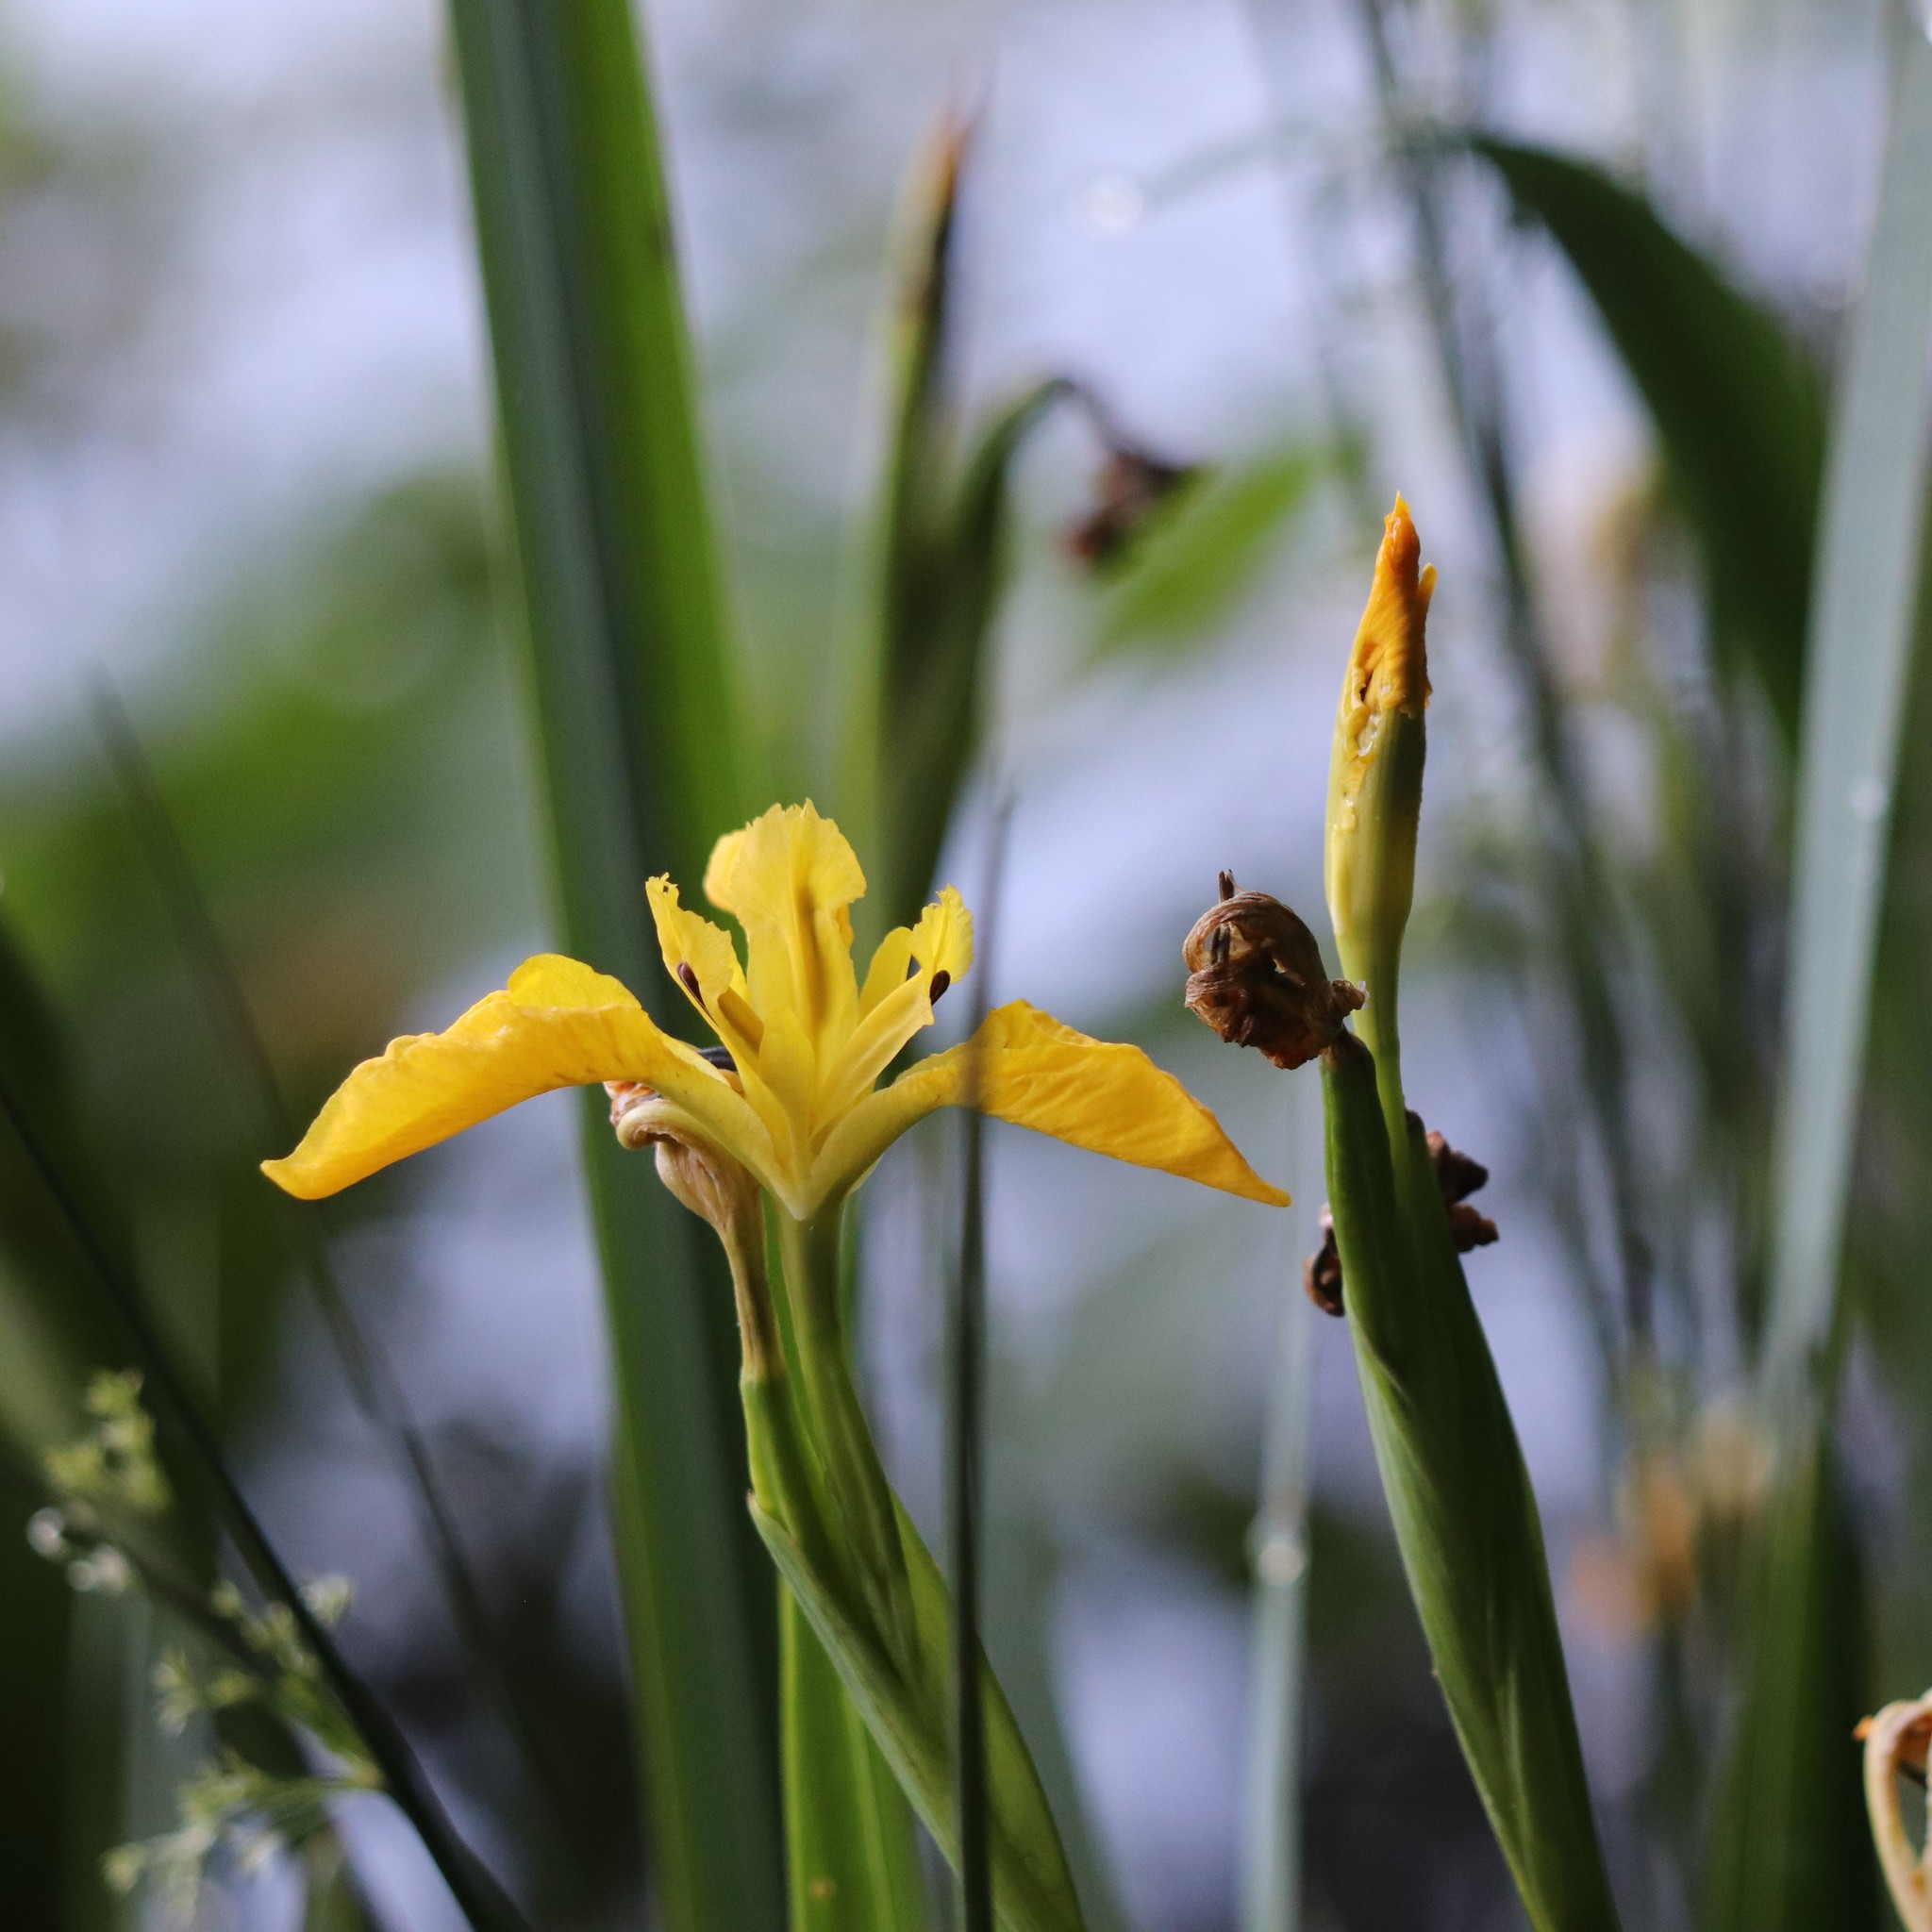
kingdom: Plantae
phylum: Tracheophyta
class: Liliopsida
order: Asparagales
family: Iridaceae
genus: Iris
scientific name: Iris pseudacorus
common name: Yellow flag
